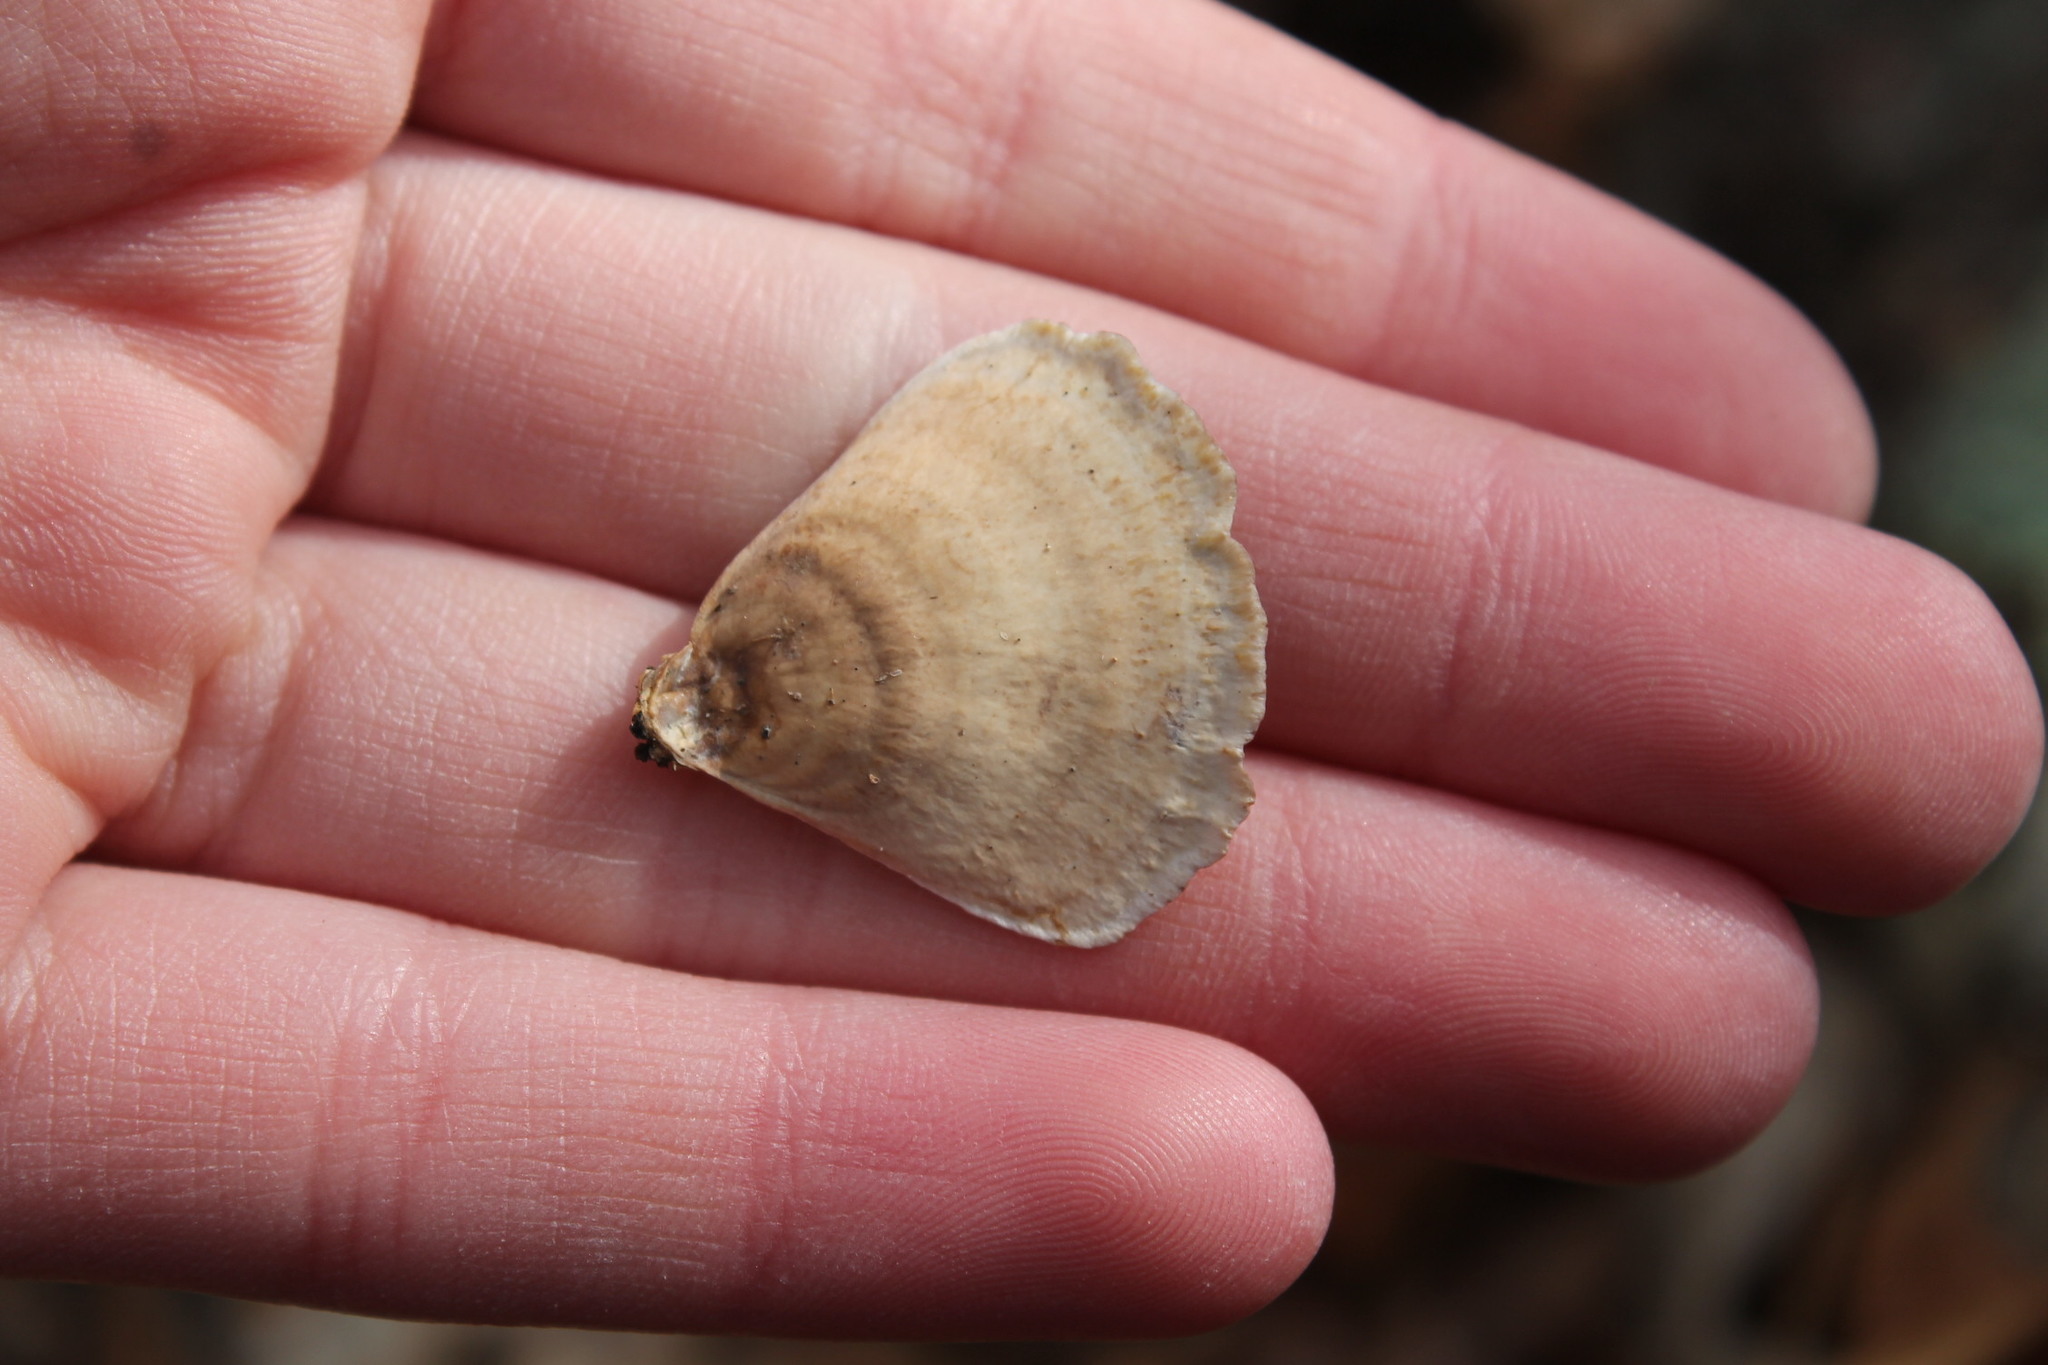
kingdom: Fungi
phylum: Basidiomycota
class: Agaricomycetes
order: Russulales
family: Stereaceae
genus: Stereum
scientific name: Stereum lobatum
